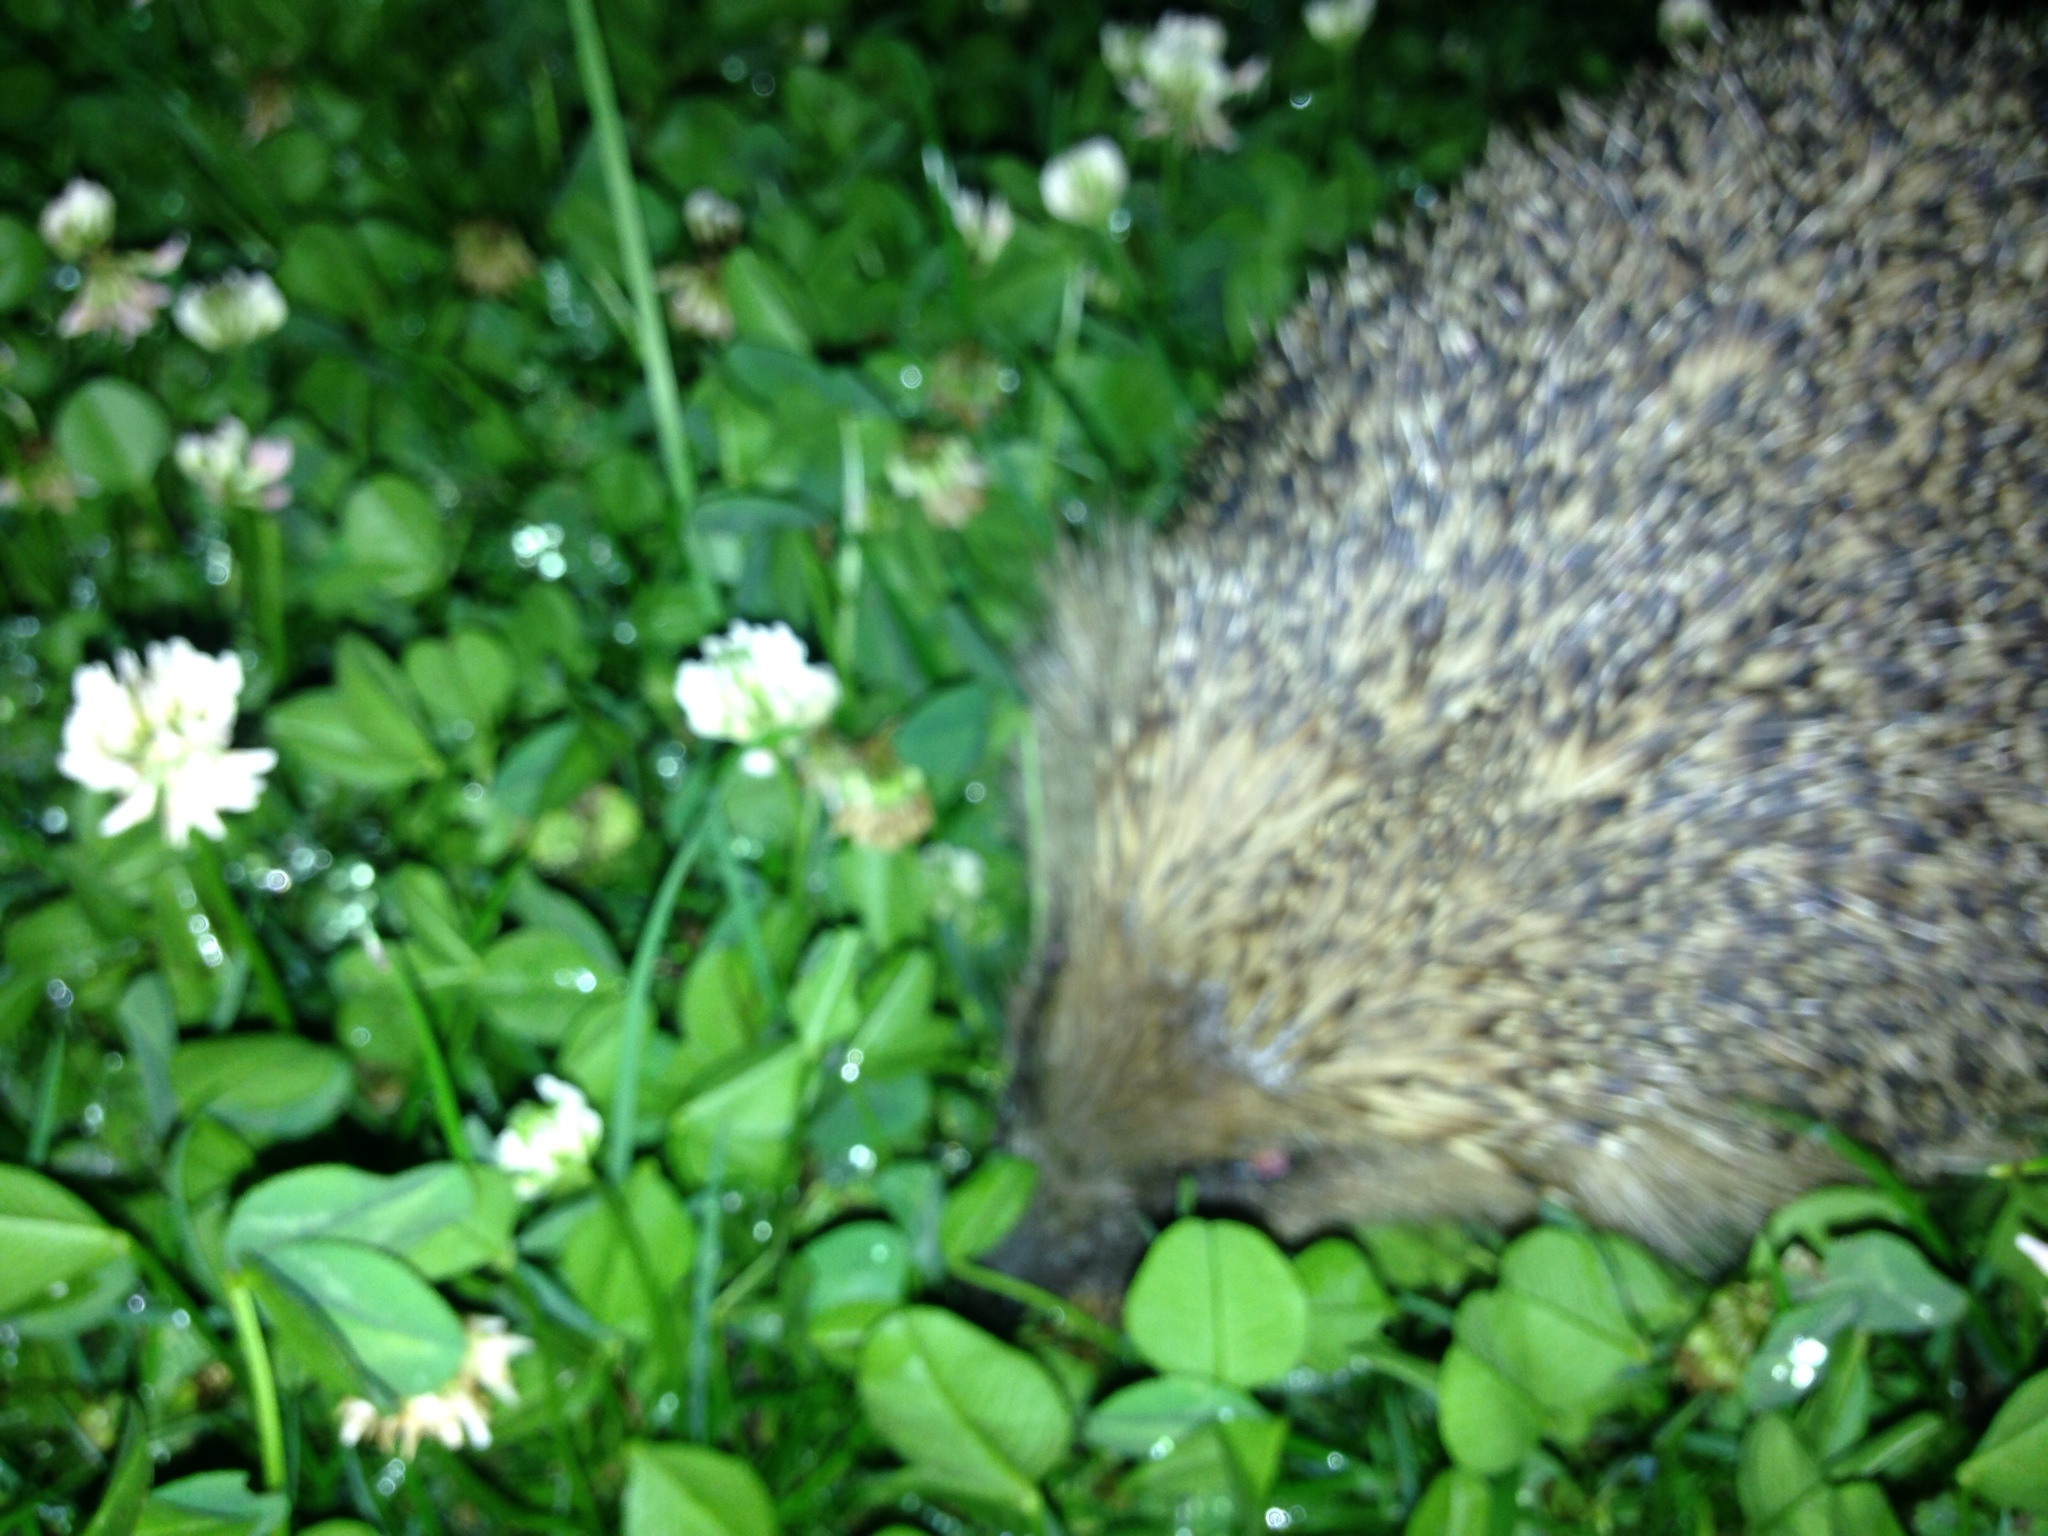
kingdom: Animalia
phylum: Chordata
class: Mammalia
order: Erinaceomorpha
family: Erinaceidae
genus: Erinaceus
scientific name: Erinaceus europaeus
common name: West european hedgehog
